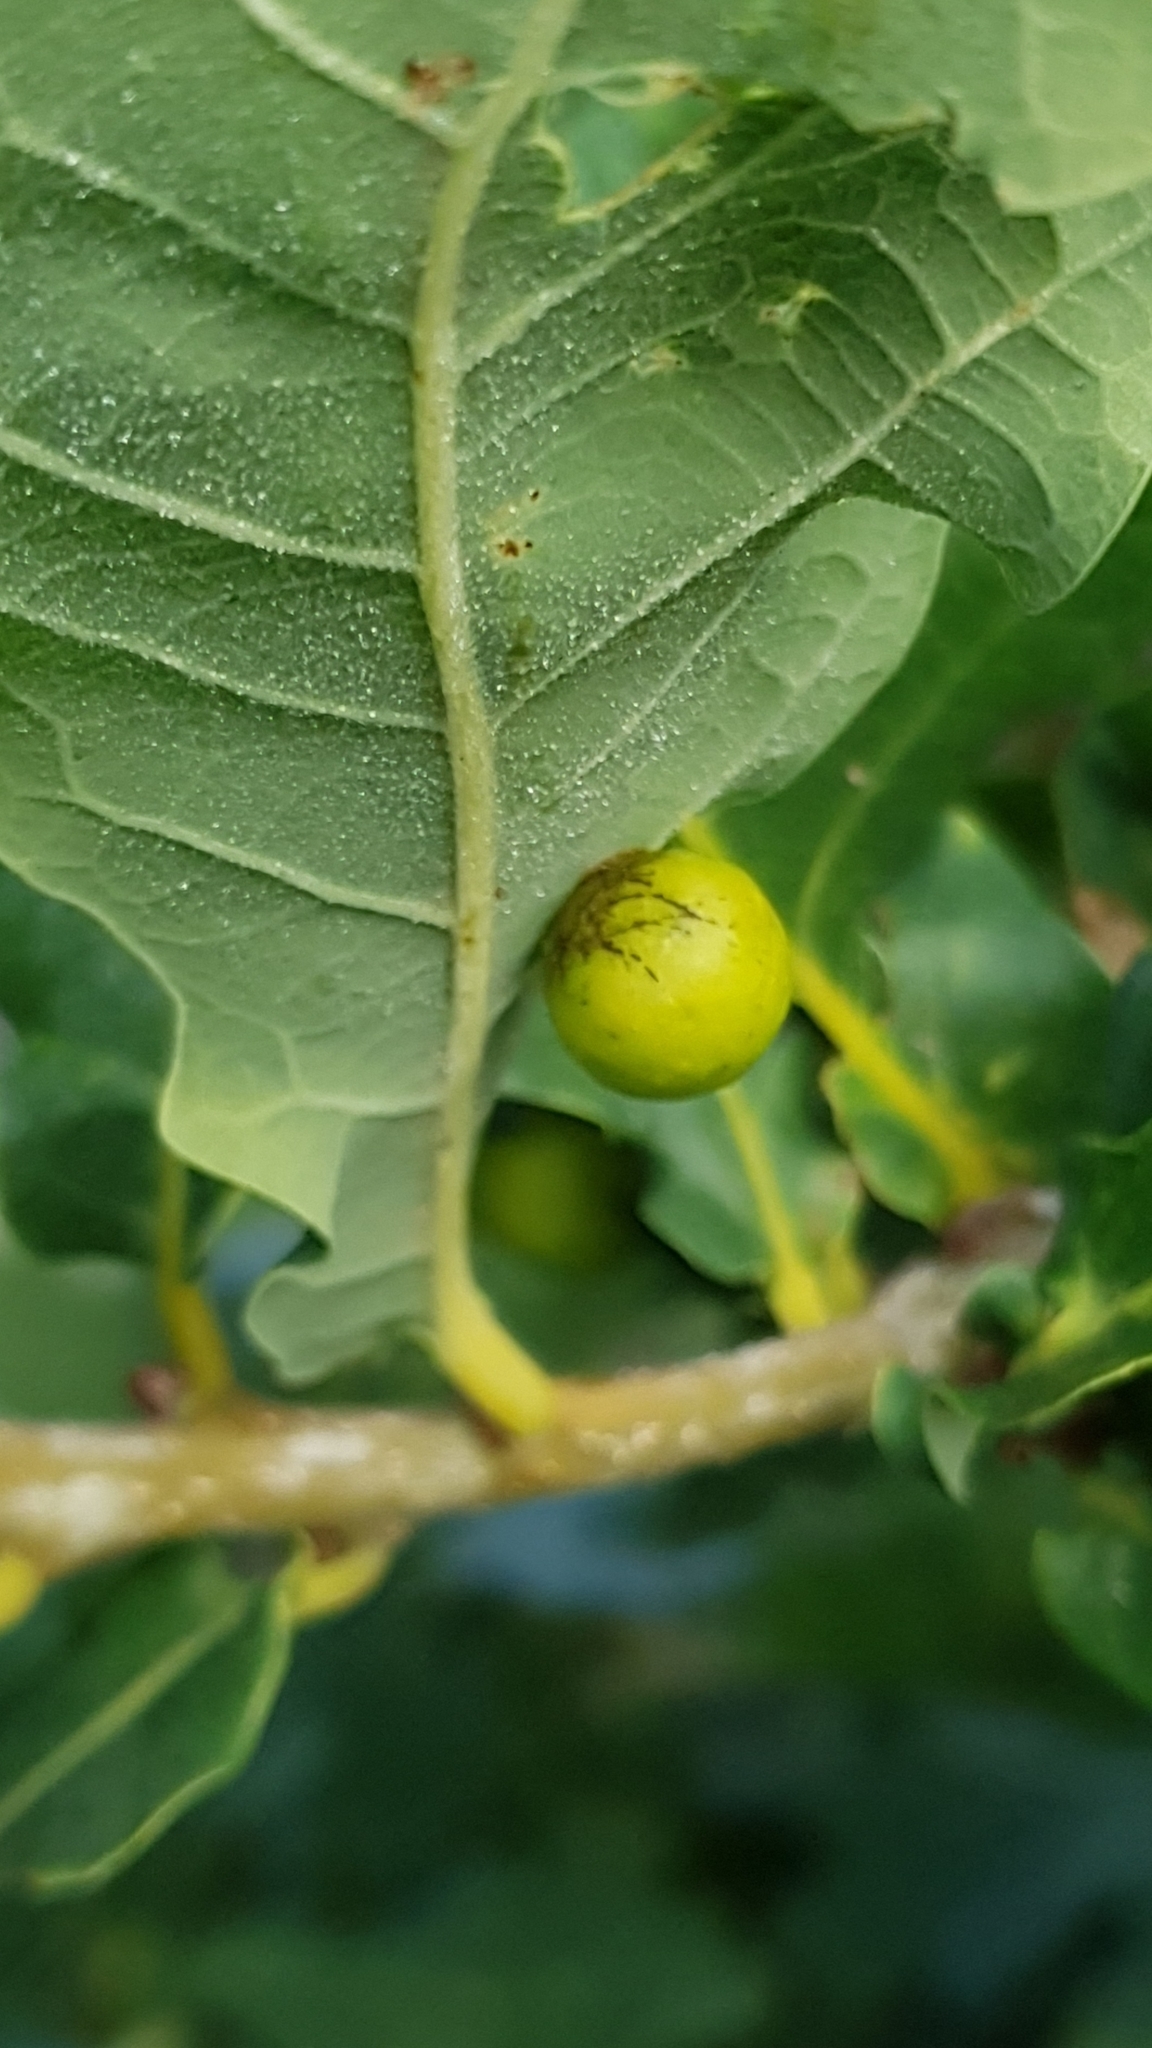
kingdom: Animalia
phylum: Arthropoda
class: Insecta
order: Hymenoptera
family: Cynipidae
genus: Cynips
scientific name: Cynips quercusfolii
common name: Cherry gall
